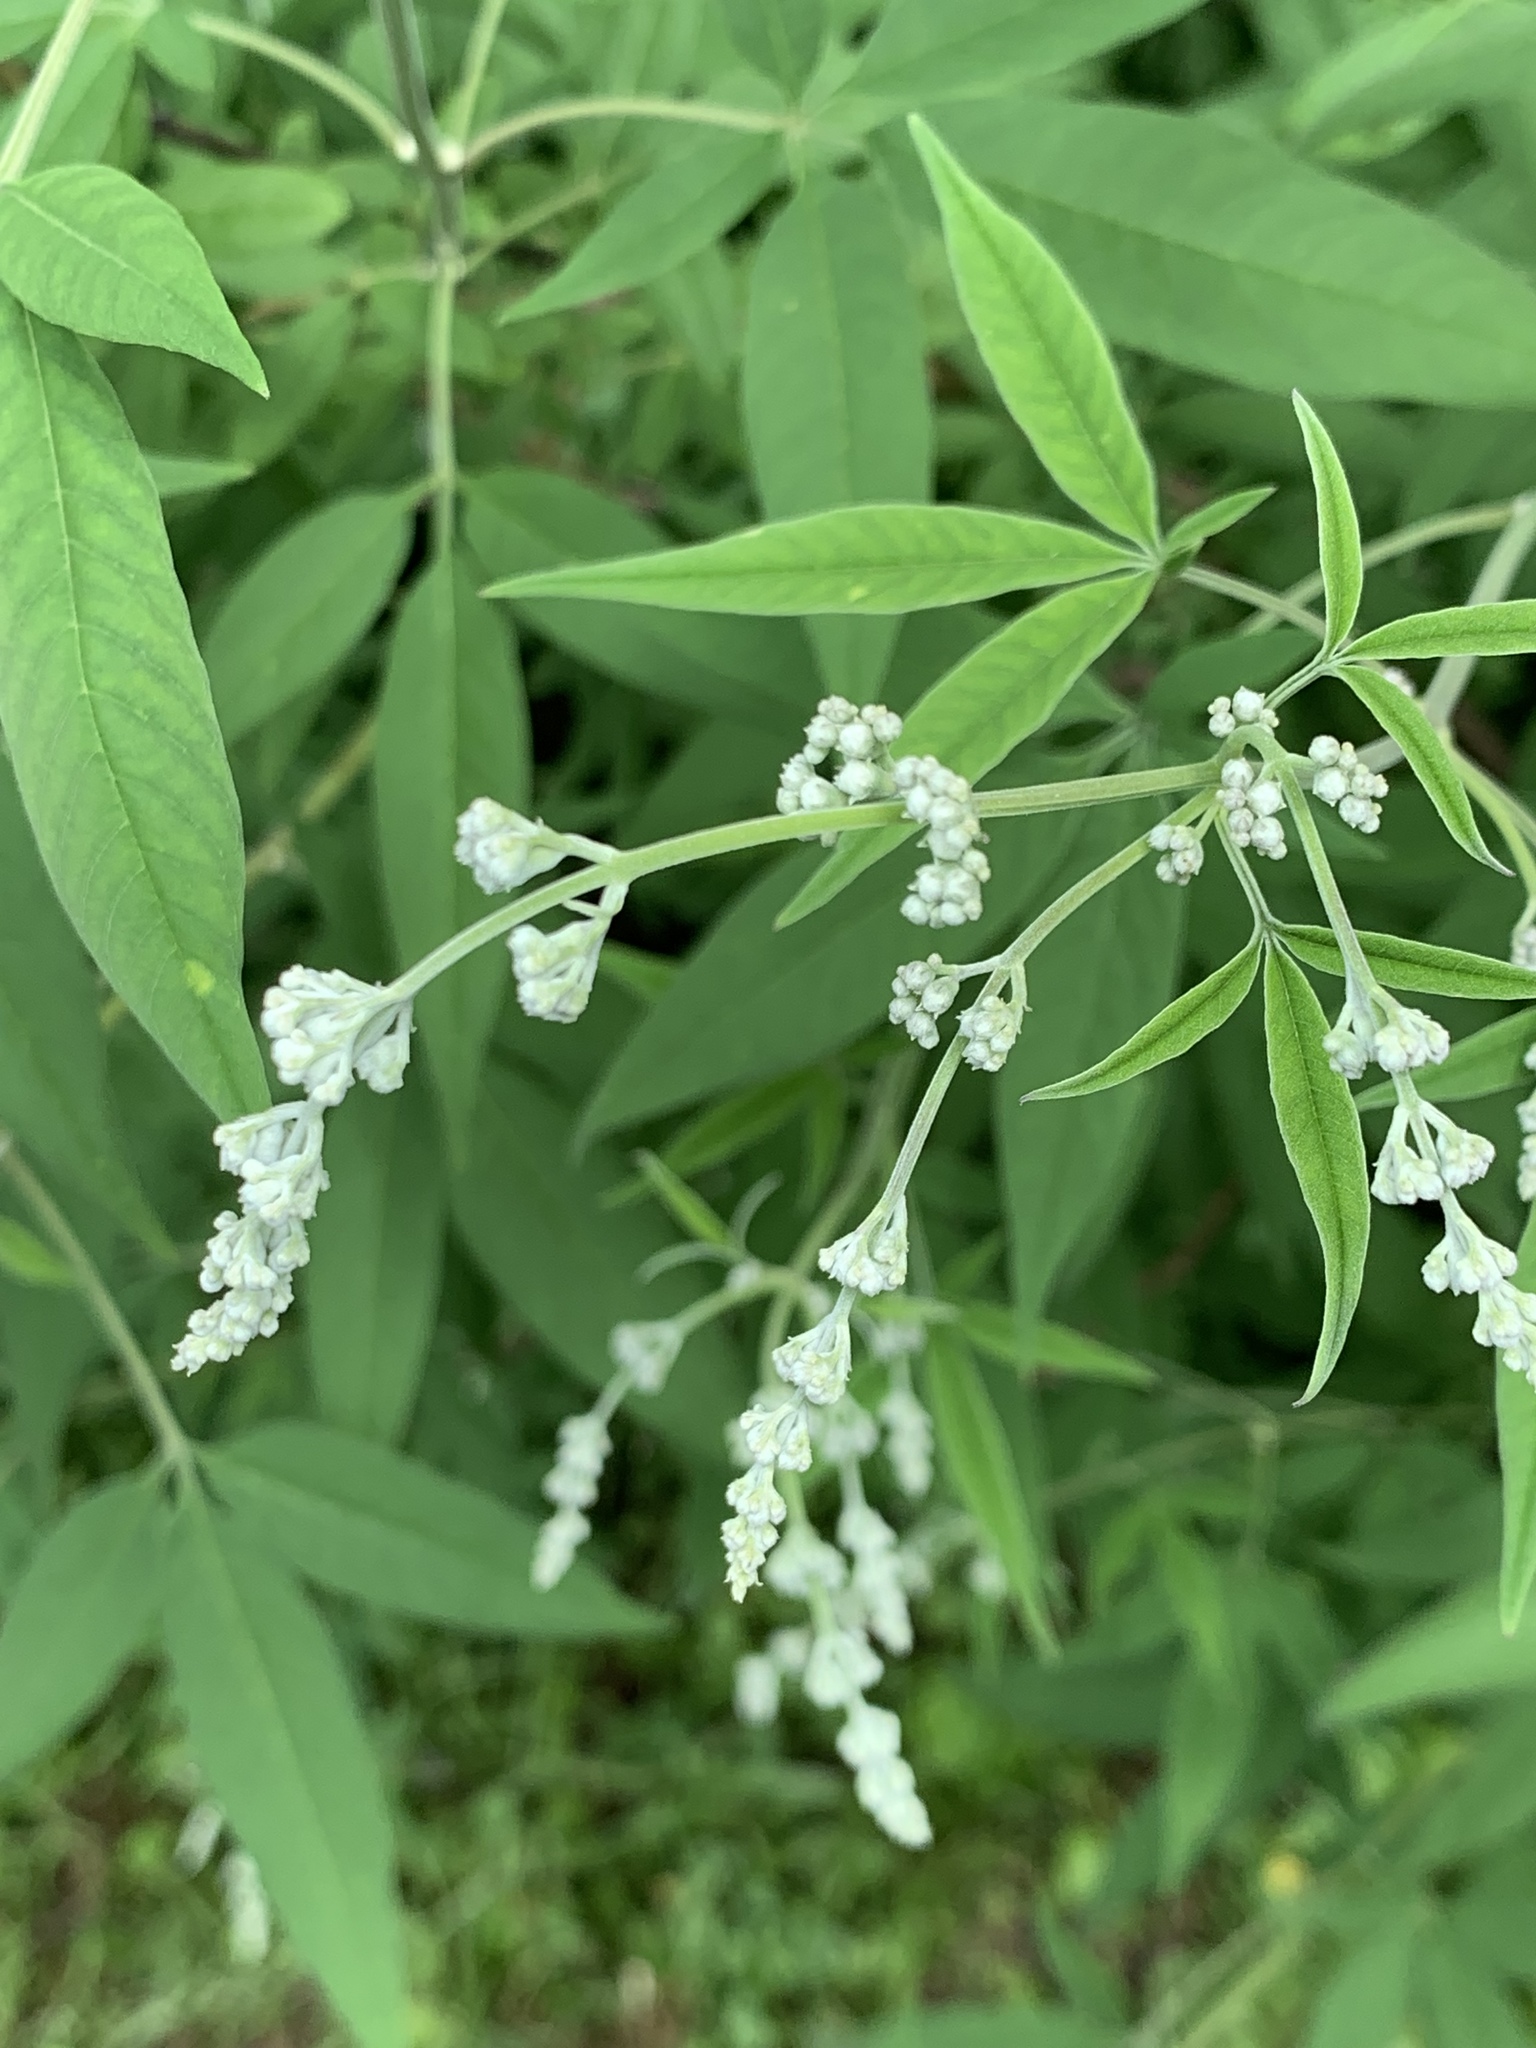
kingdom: Plantae
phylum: Tracheophyta
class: Magnoliopsida
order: Lamiales
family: Lamiaceae
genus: Vitex
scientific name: Vitex negundo
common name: Chinese chastetree
